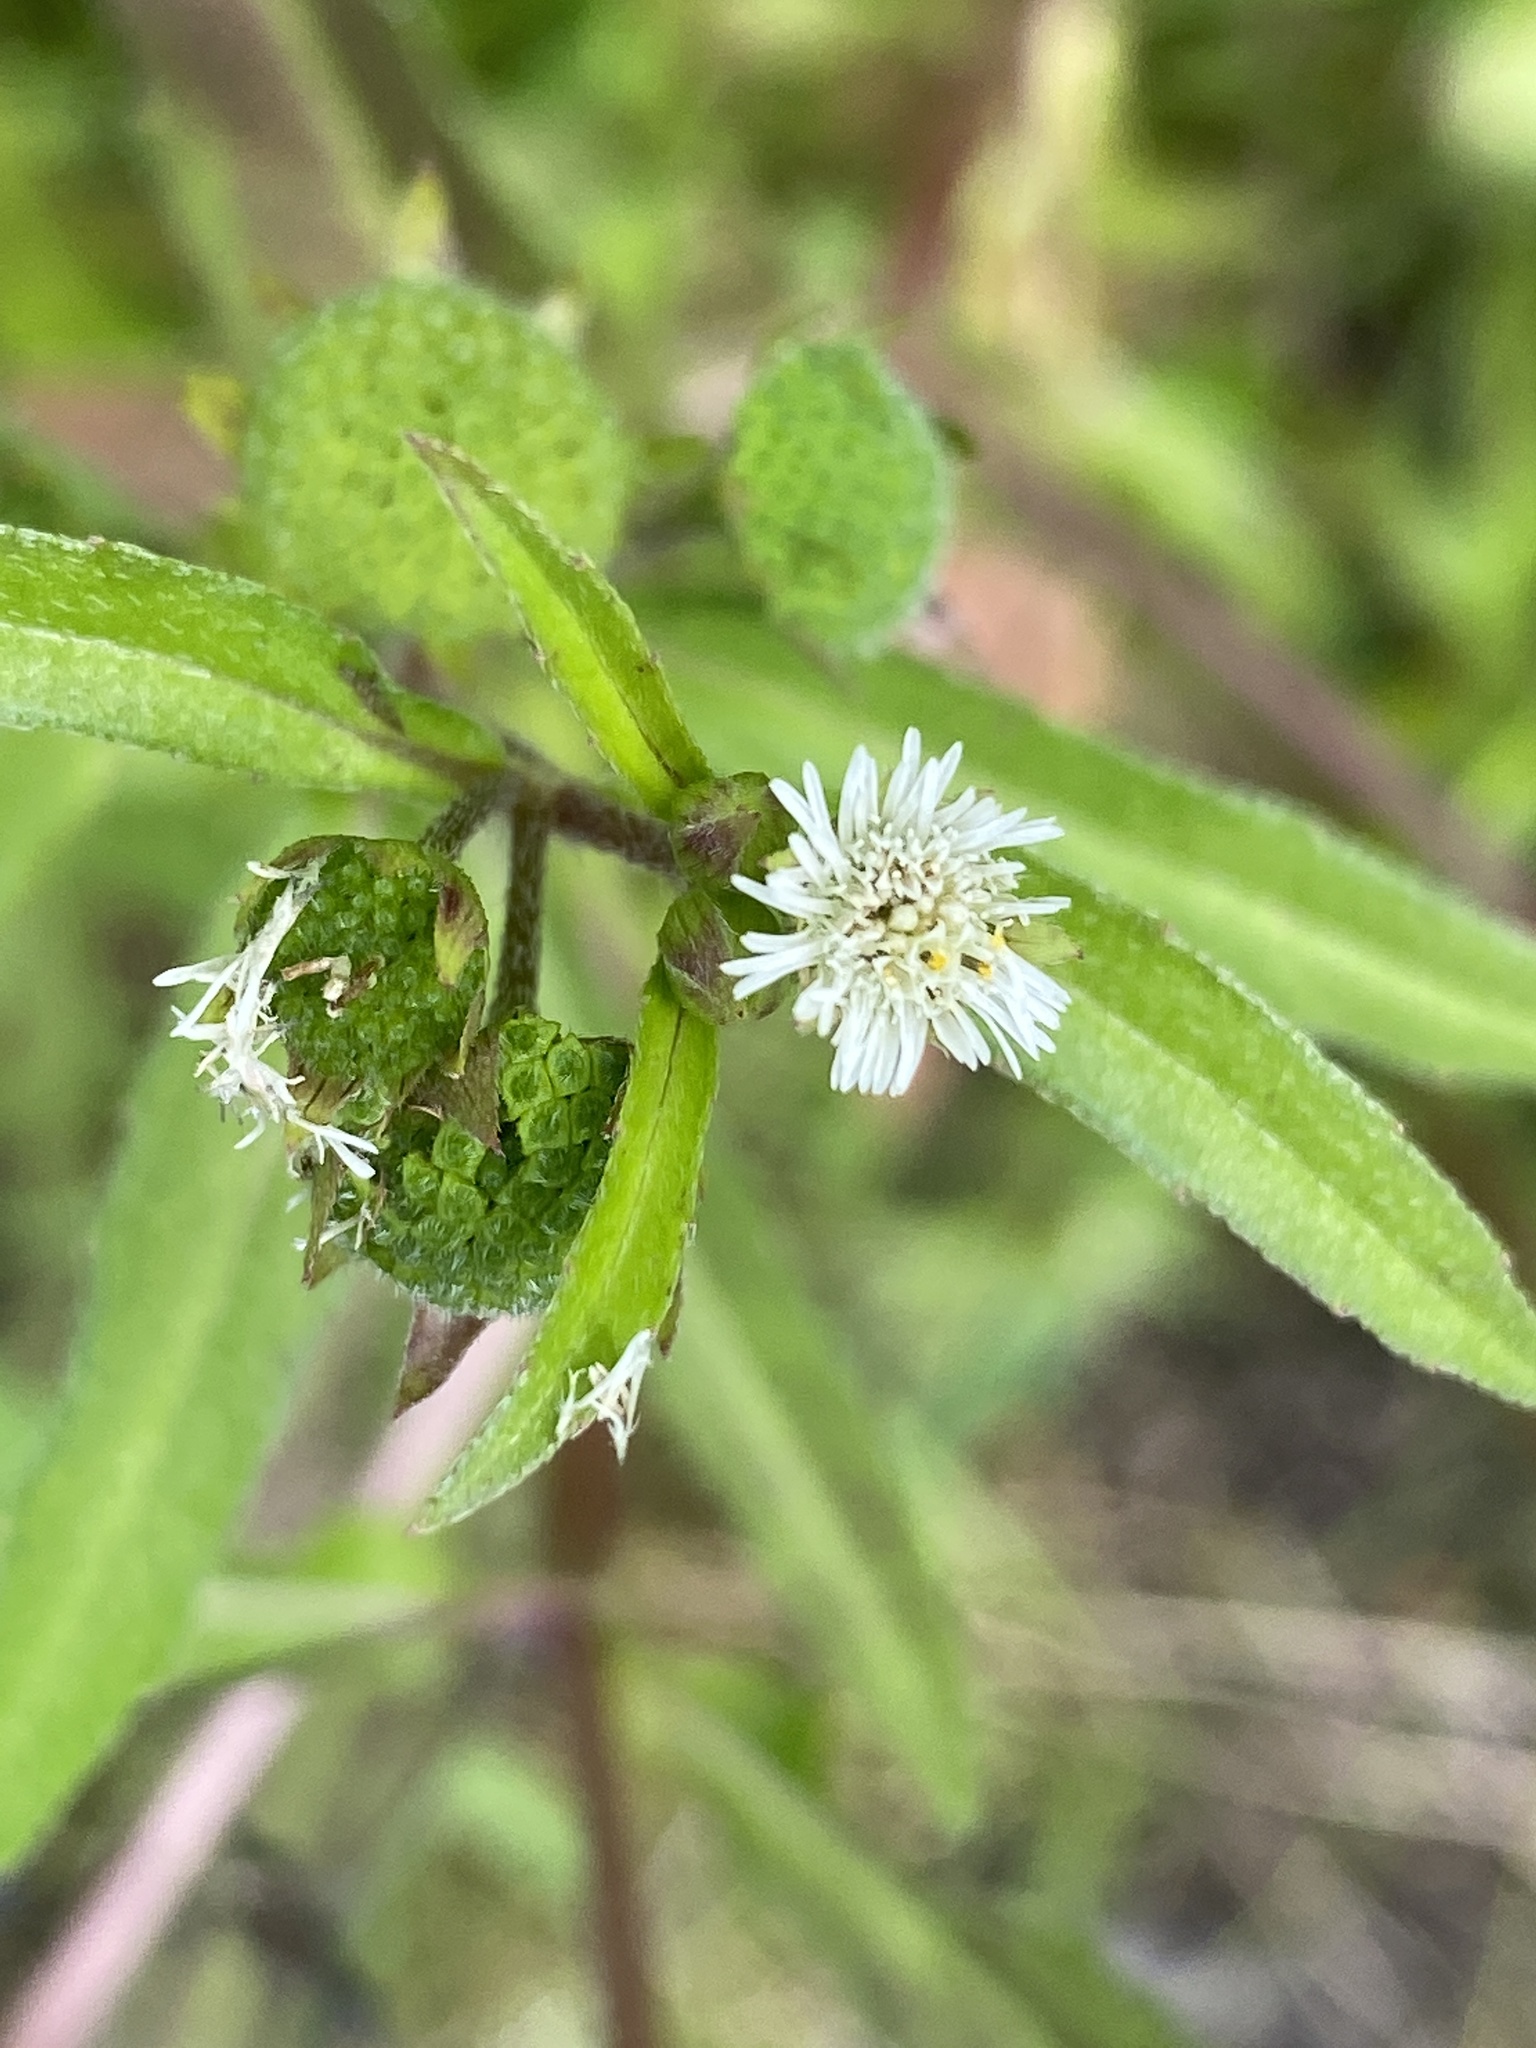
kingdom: Plantae
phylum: Tracheophyta
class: Magnoliopsida
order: Asterales
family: Asteraceae
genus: Eclipta
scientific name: Eclipta prostrata
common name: False daisy
